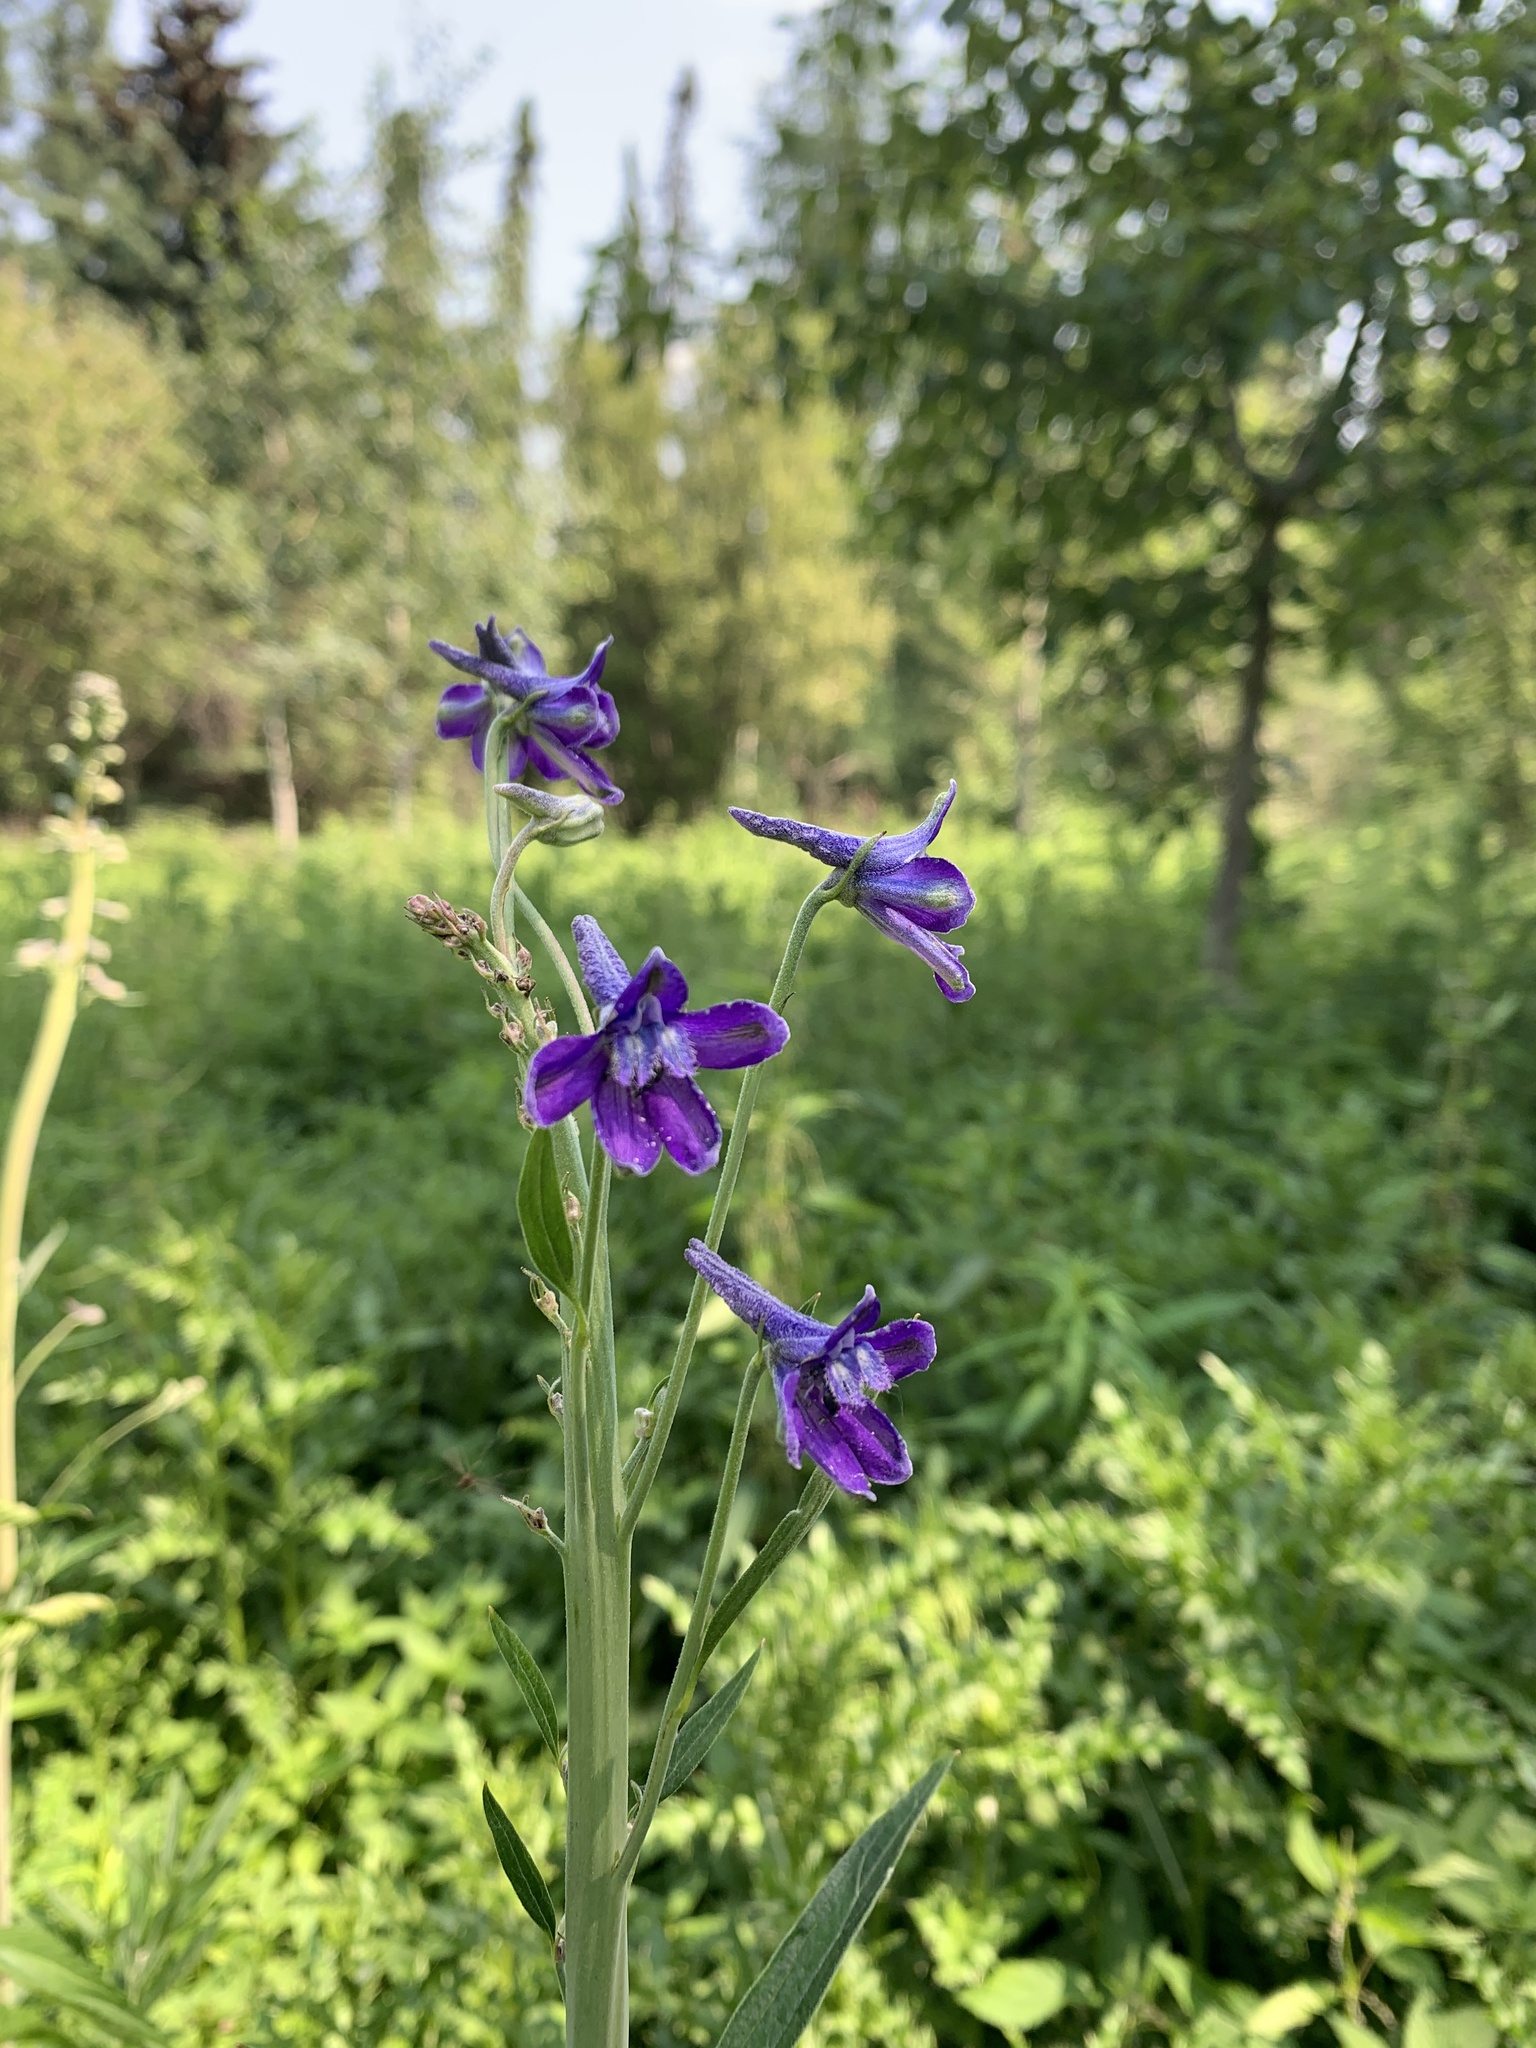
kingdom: Plantae
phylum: Tracheophyta
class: Magnoliopsida
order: Ranunculales
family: Ranunculaceae
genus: Delphinium
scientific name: Delphinium glaucum
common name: Brown's larkspur
